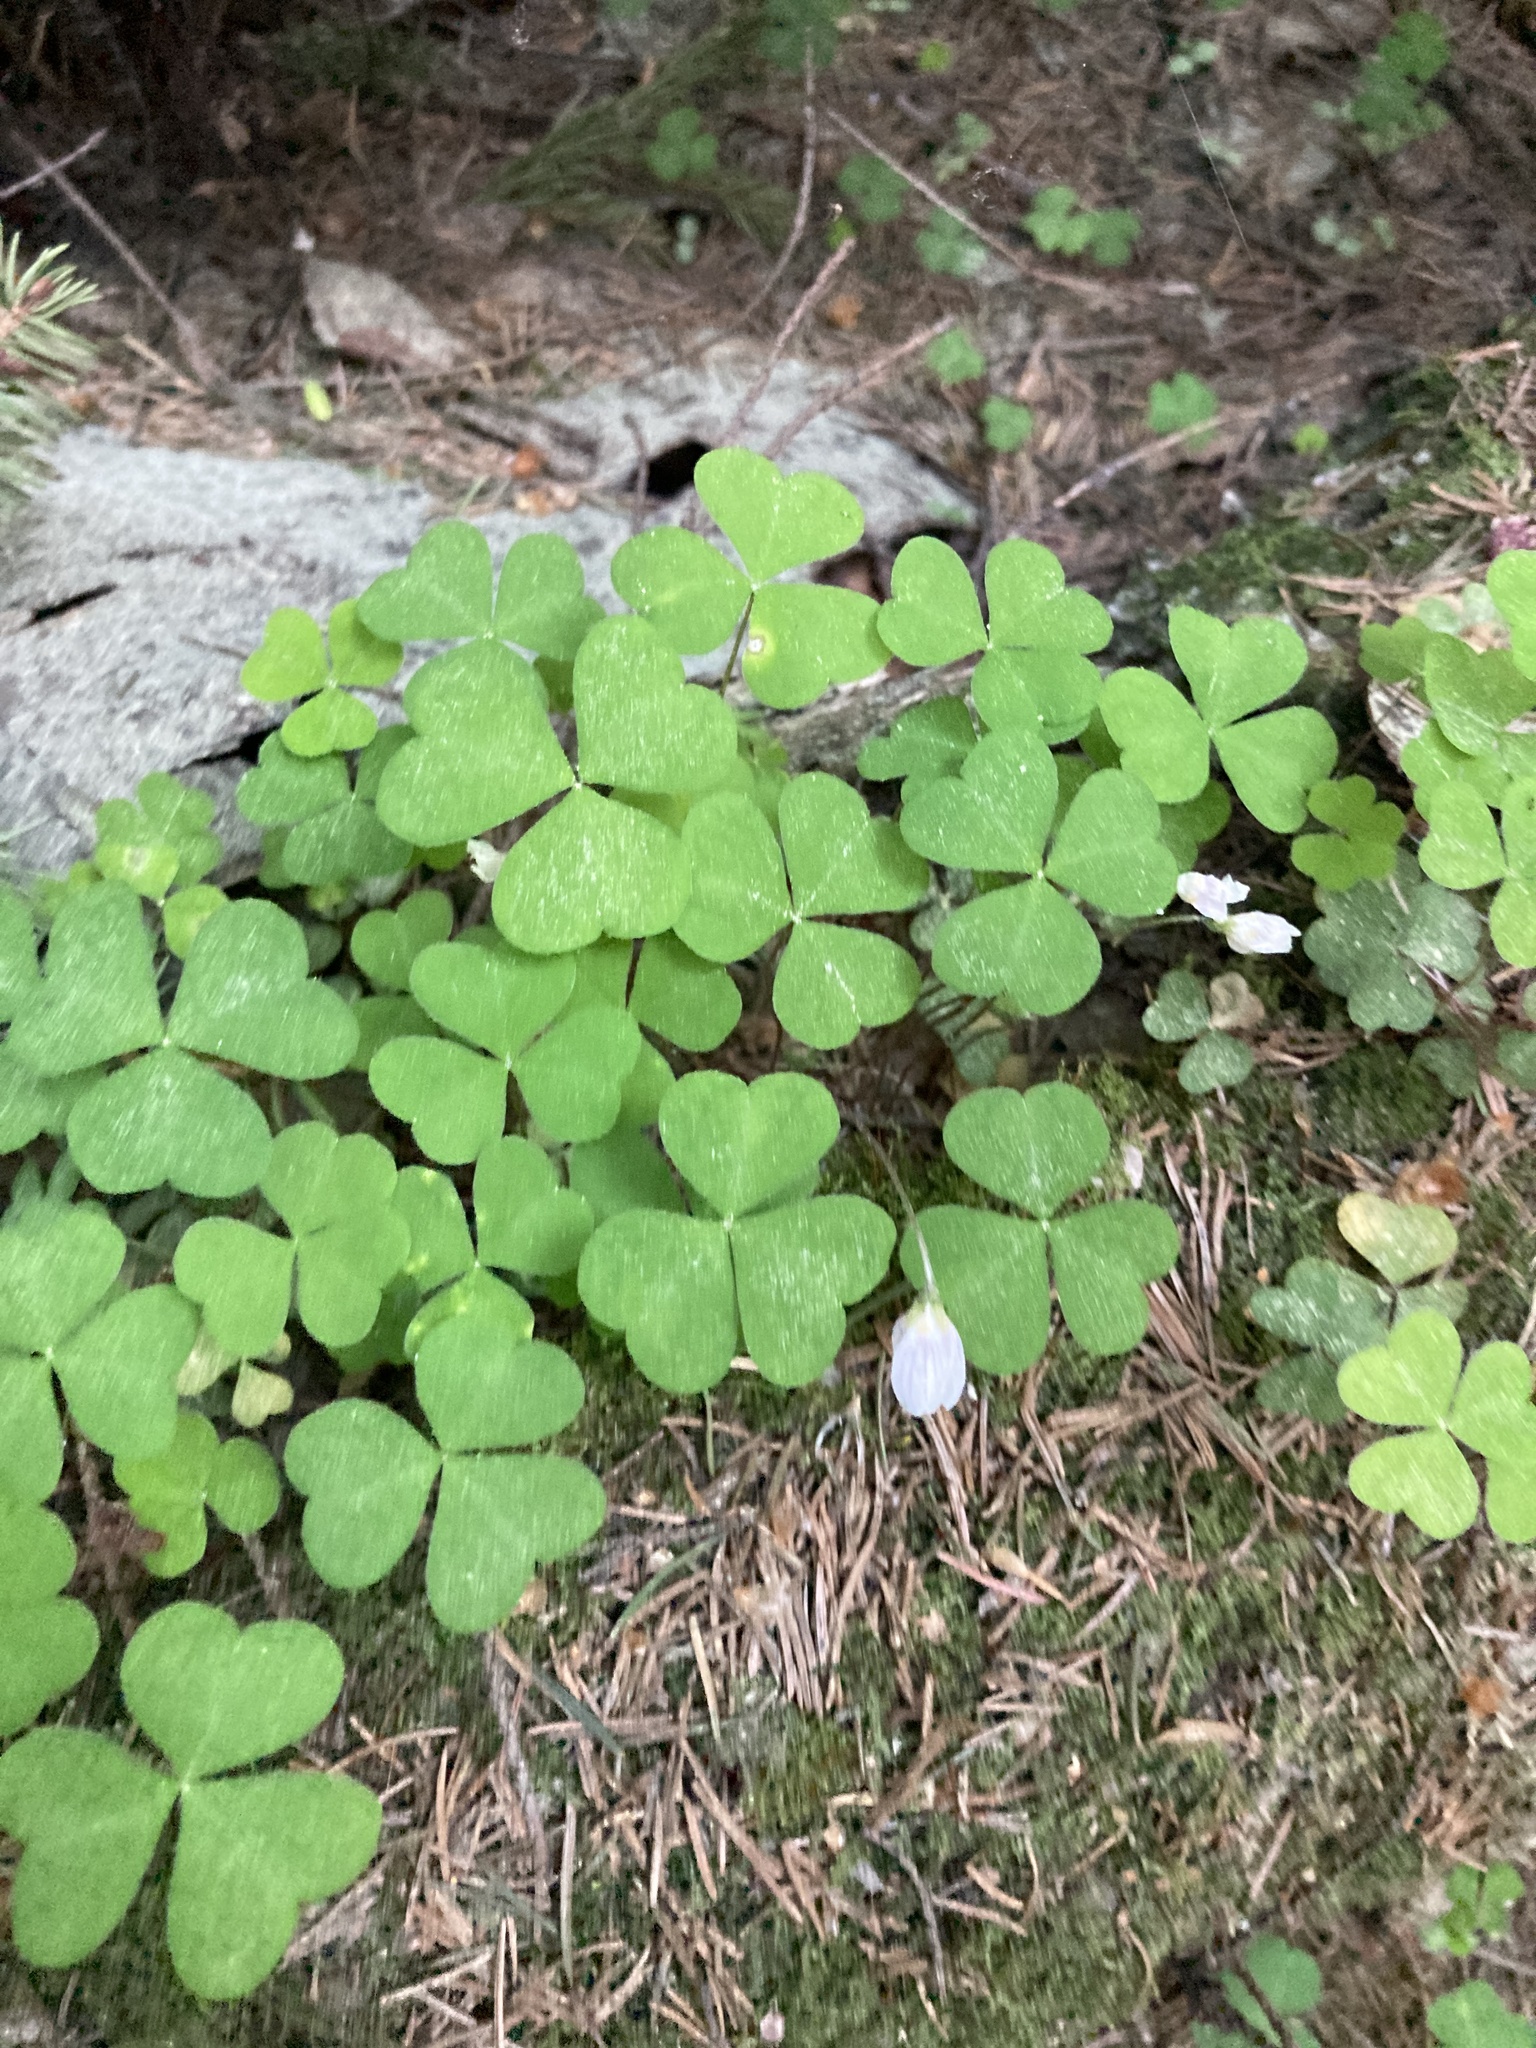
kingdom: Plantae
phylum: Tracheophyta
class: Magnoliopsida
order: Oxalidales
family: Oxalidaceae
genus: Oxalis
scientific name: Oxalis acetosella
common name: Wood-sorrel
